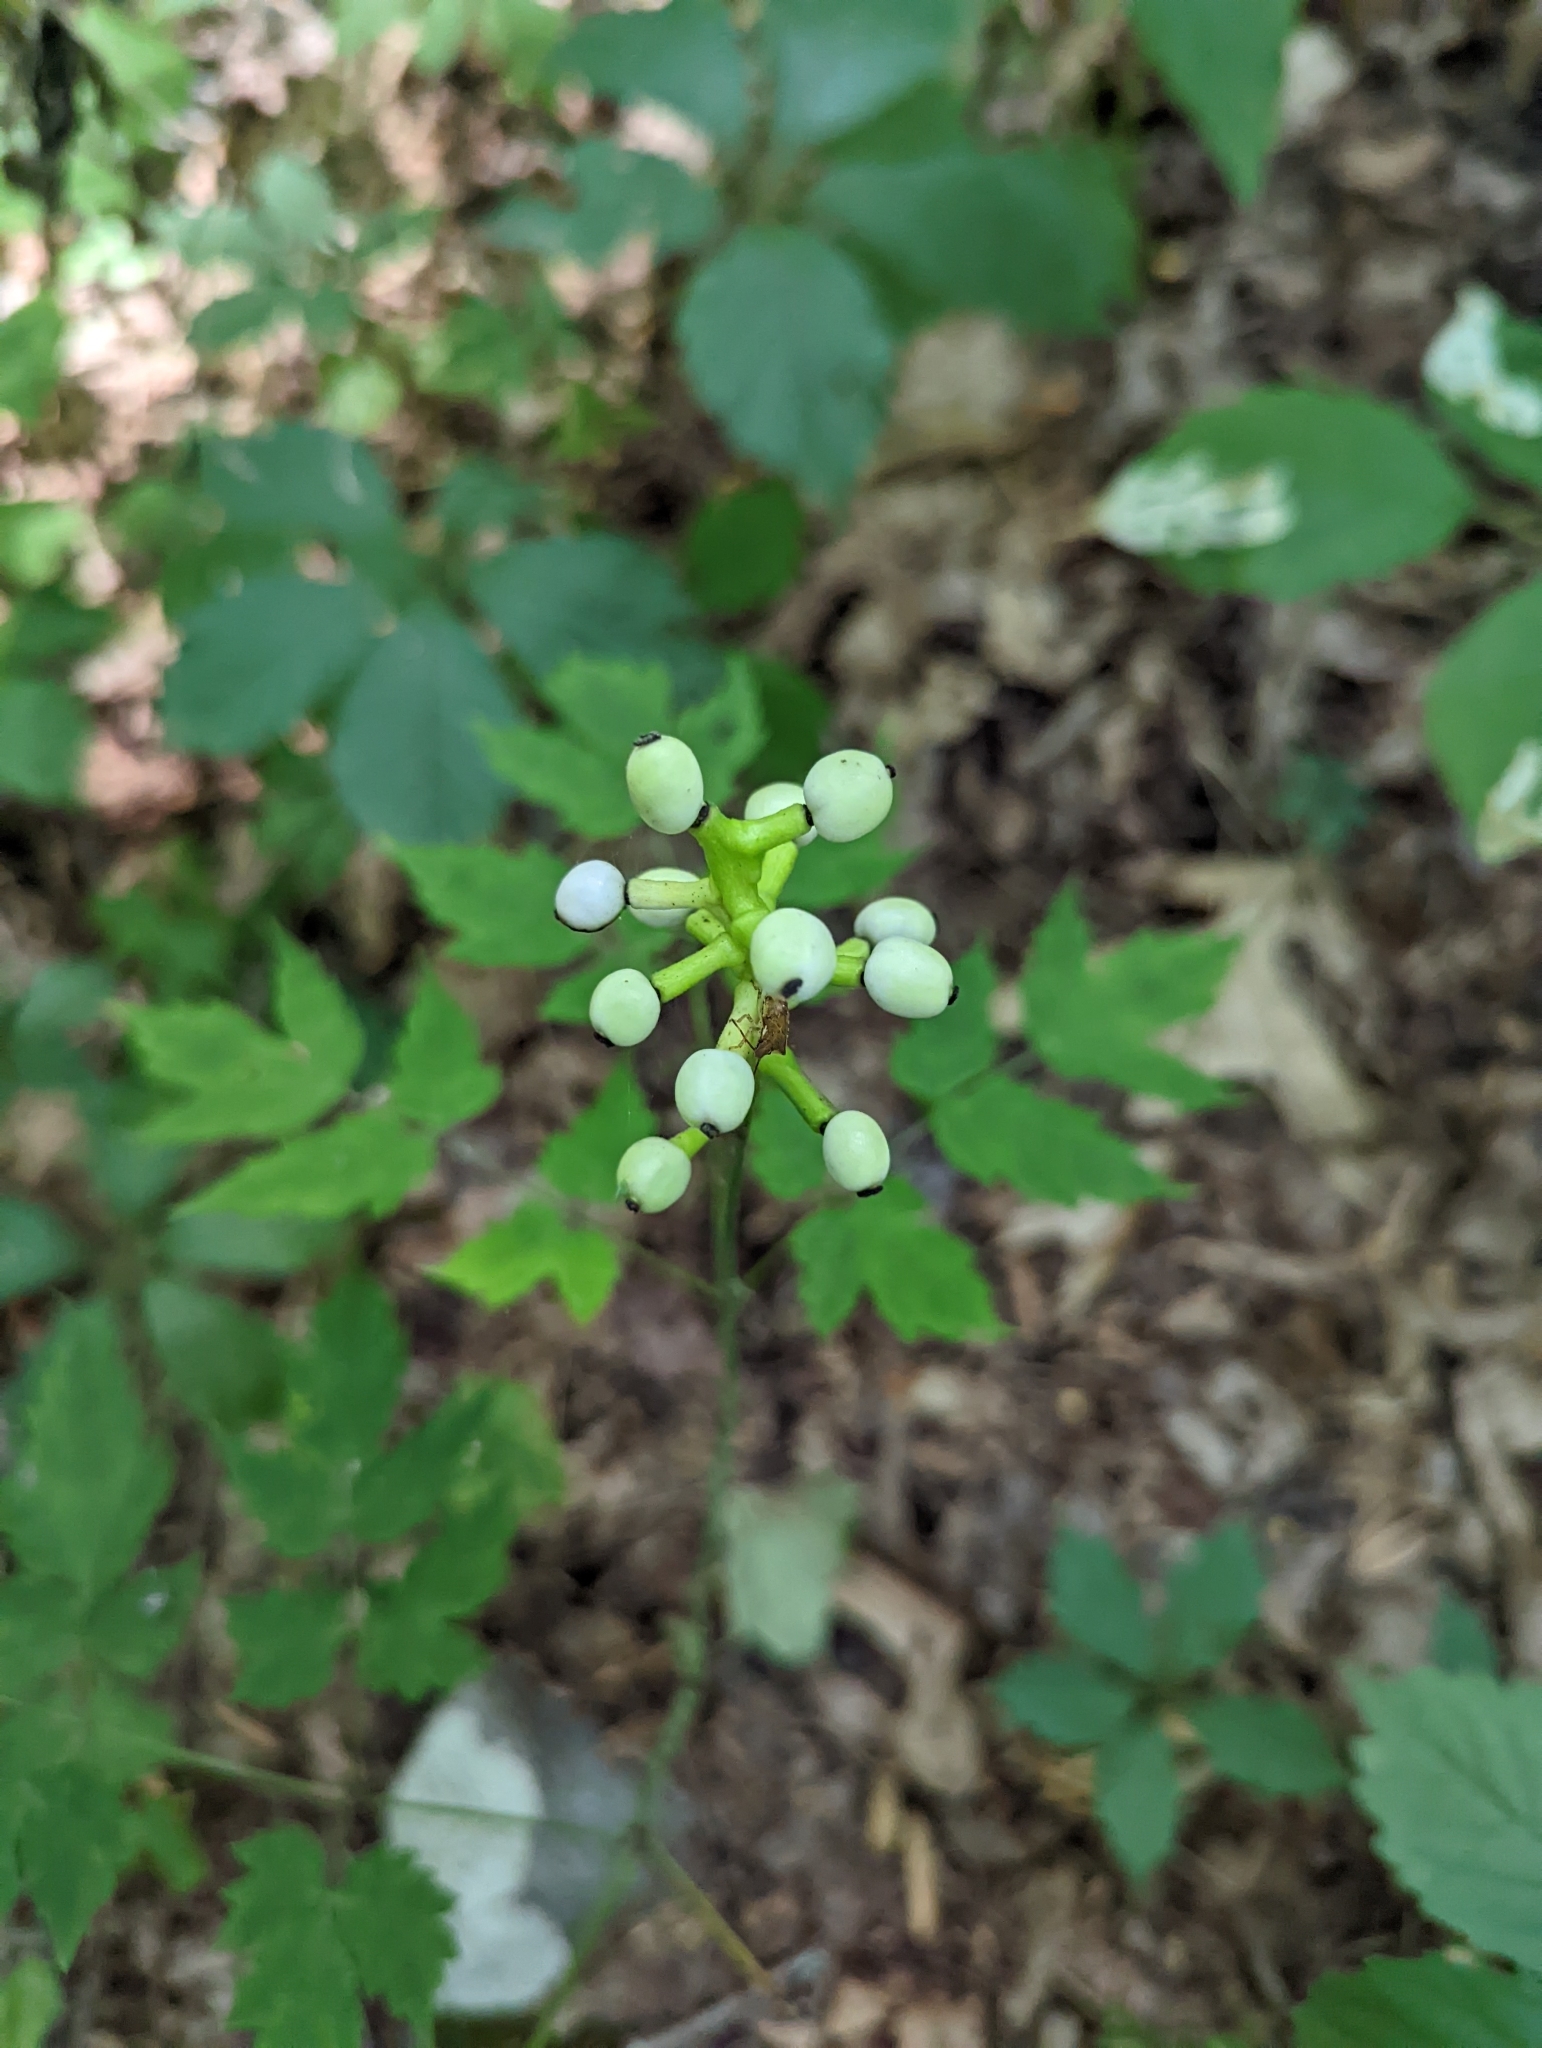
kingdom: Plantae
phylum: Tracheophyta
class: Magnoliopsida
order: Ranunculales
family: Ranunculaceae
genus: Actaea
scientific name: Actaea pachypoda
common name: Doll's-eyes
